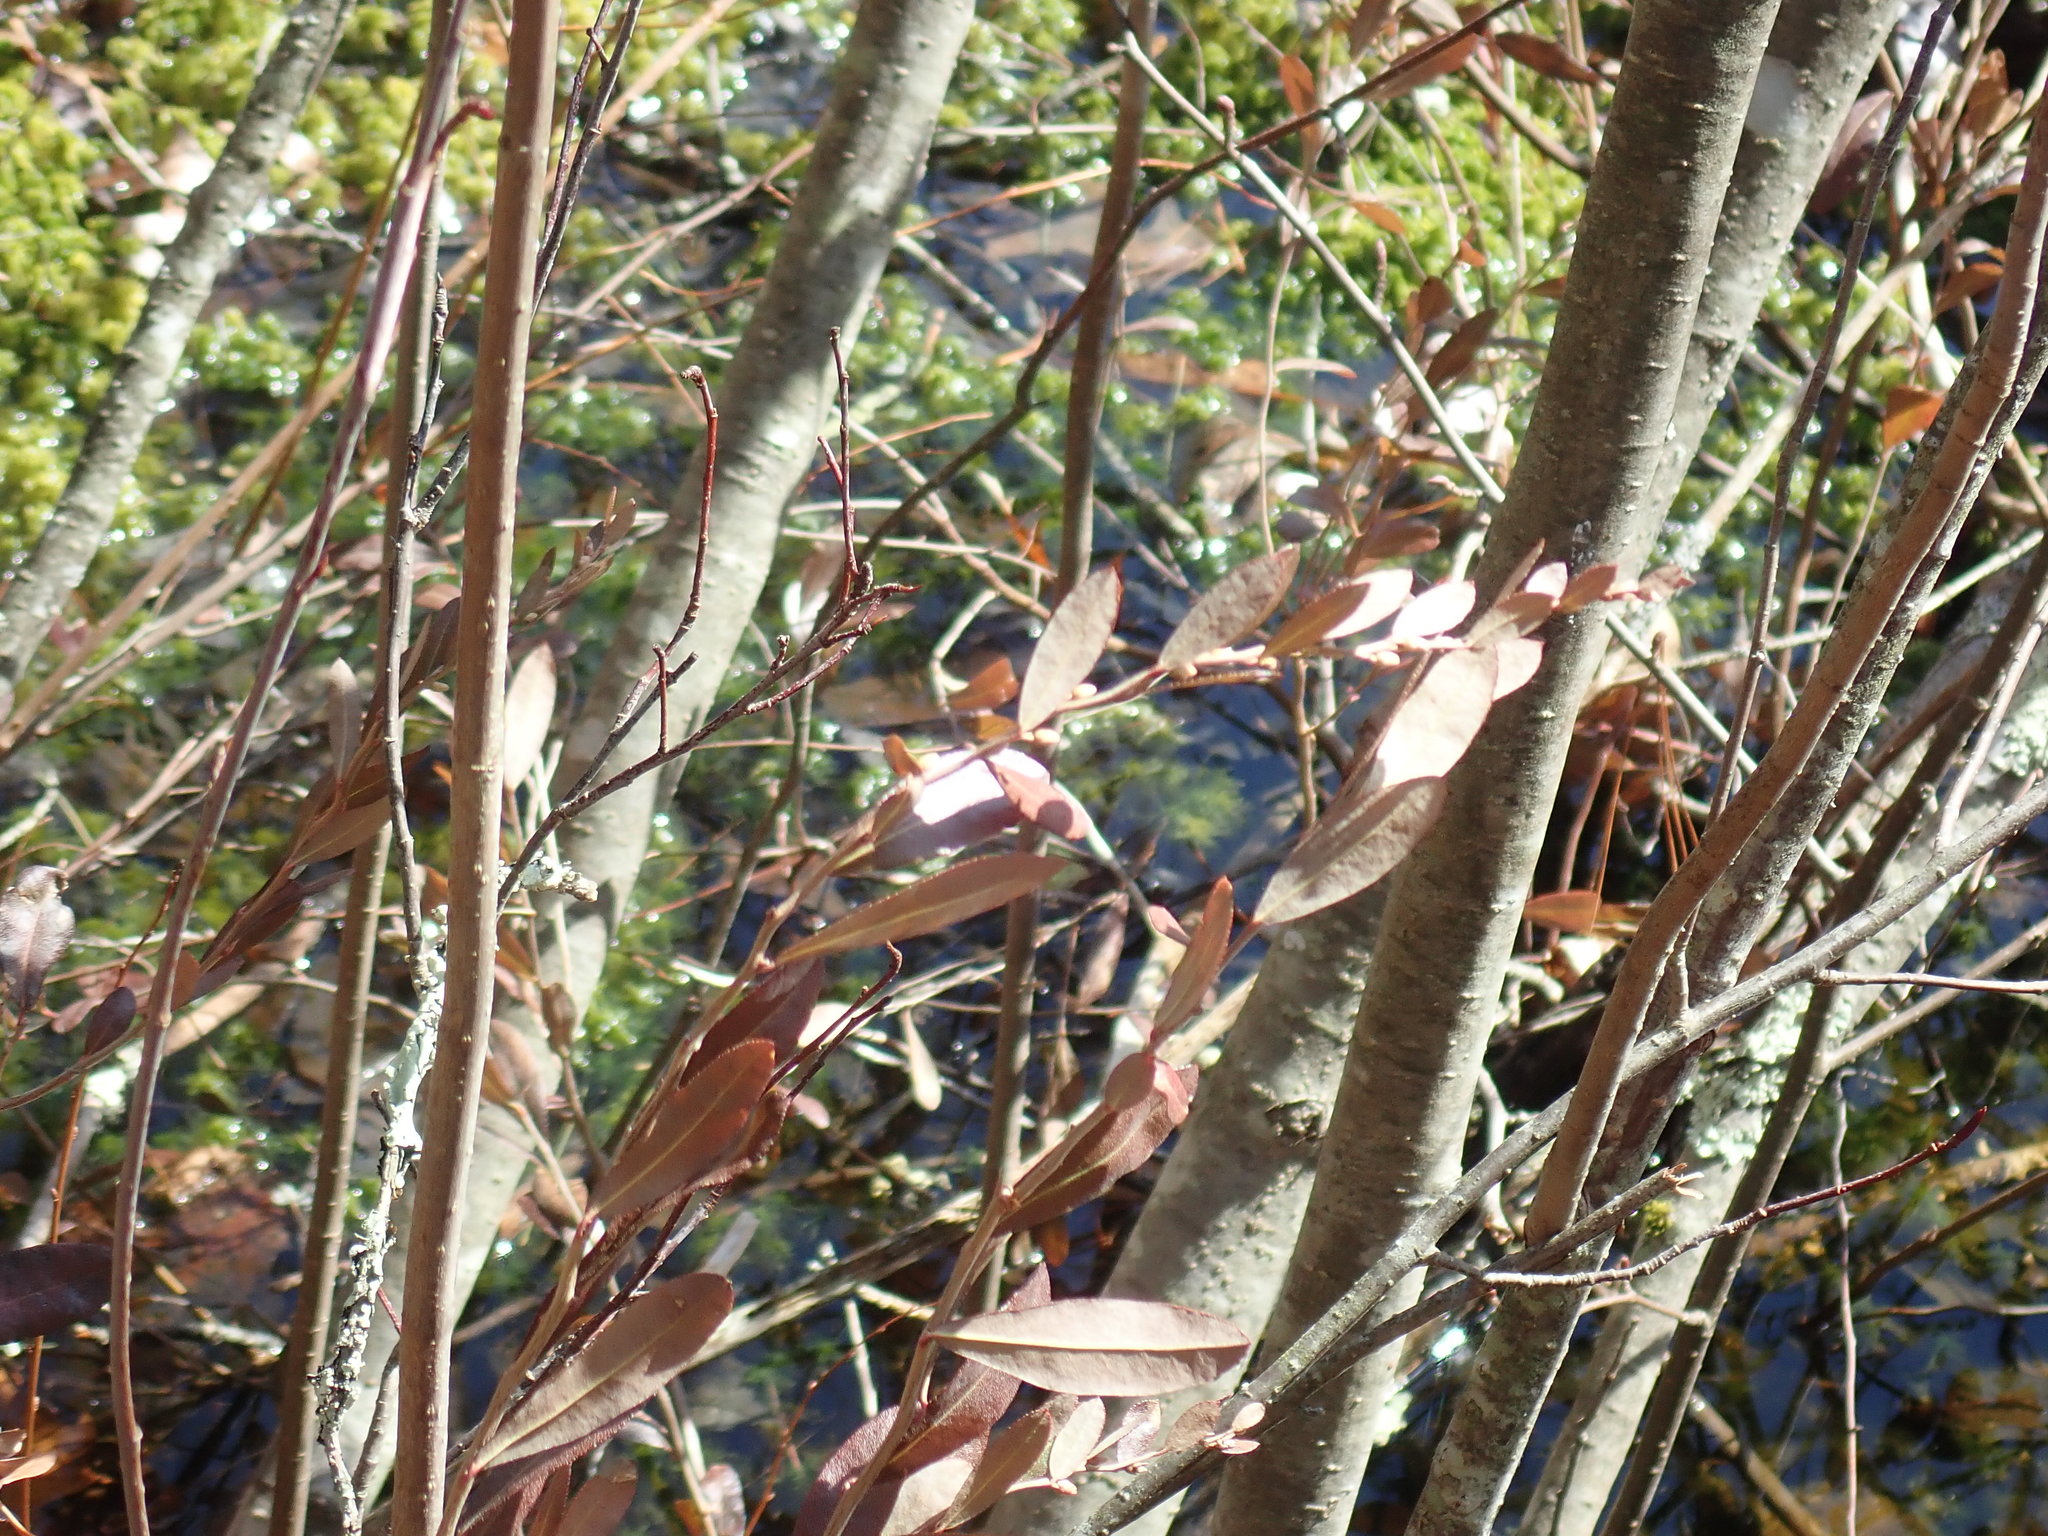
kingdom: Plantae
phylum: Tracheophyta
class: Magnoliopsida
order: Ericales
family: Ericaceae
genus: Chamaedaphne
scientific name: Chamaedaphne calyculata
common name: Leatherleaf
